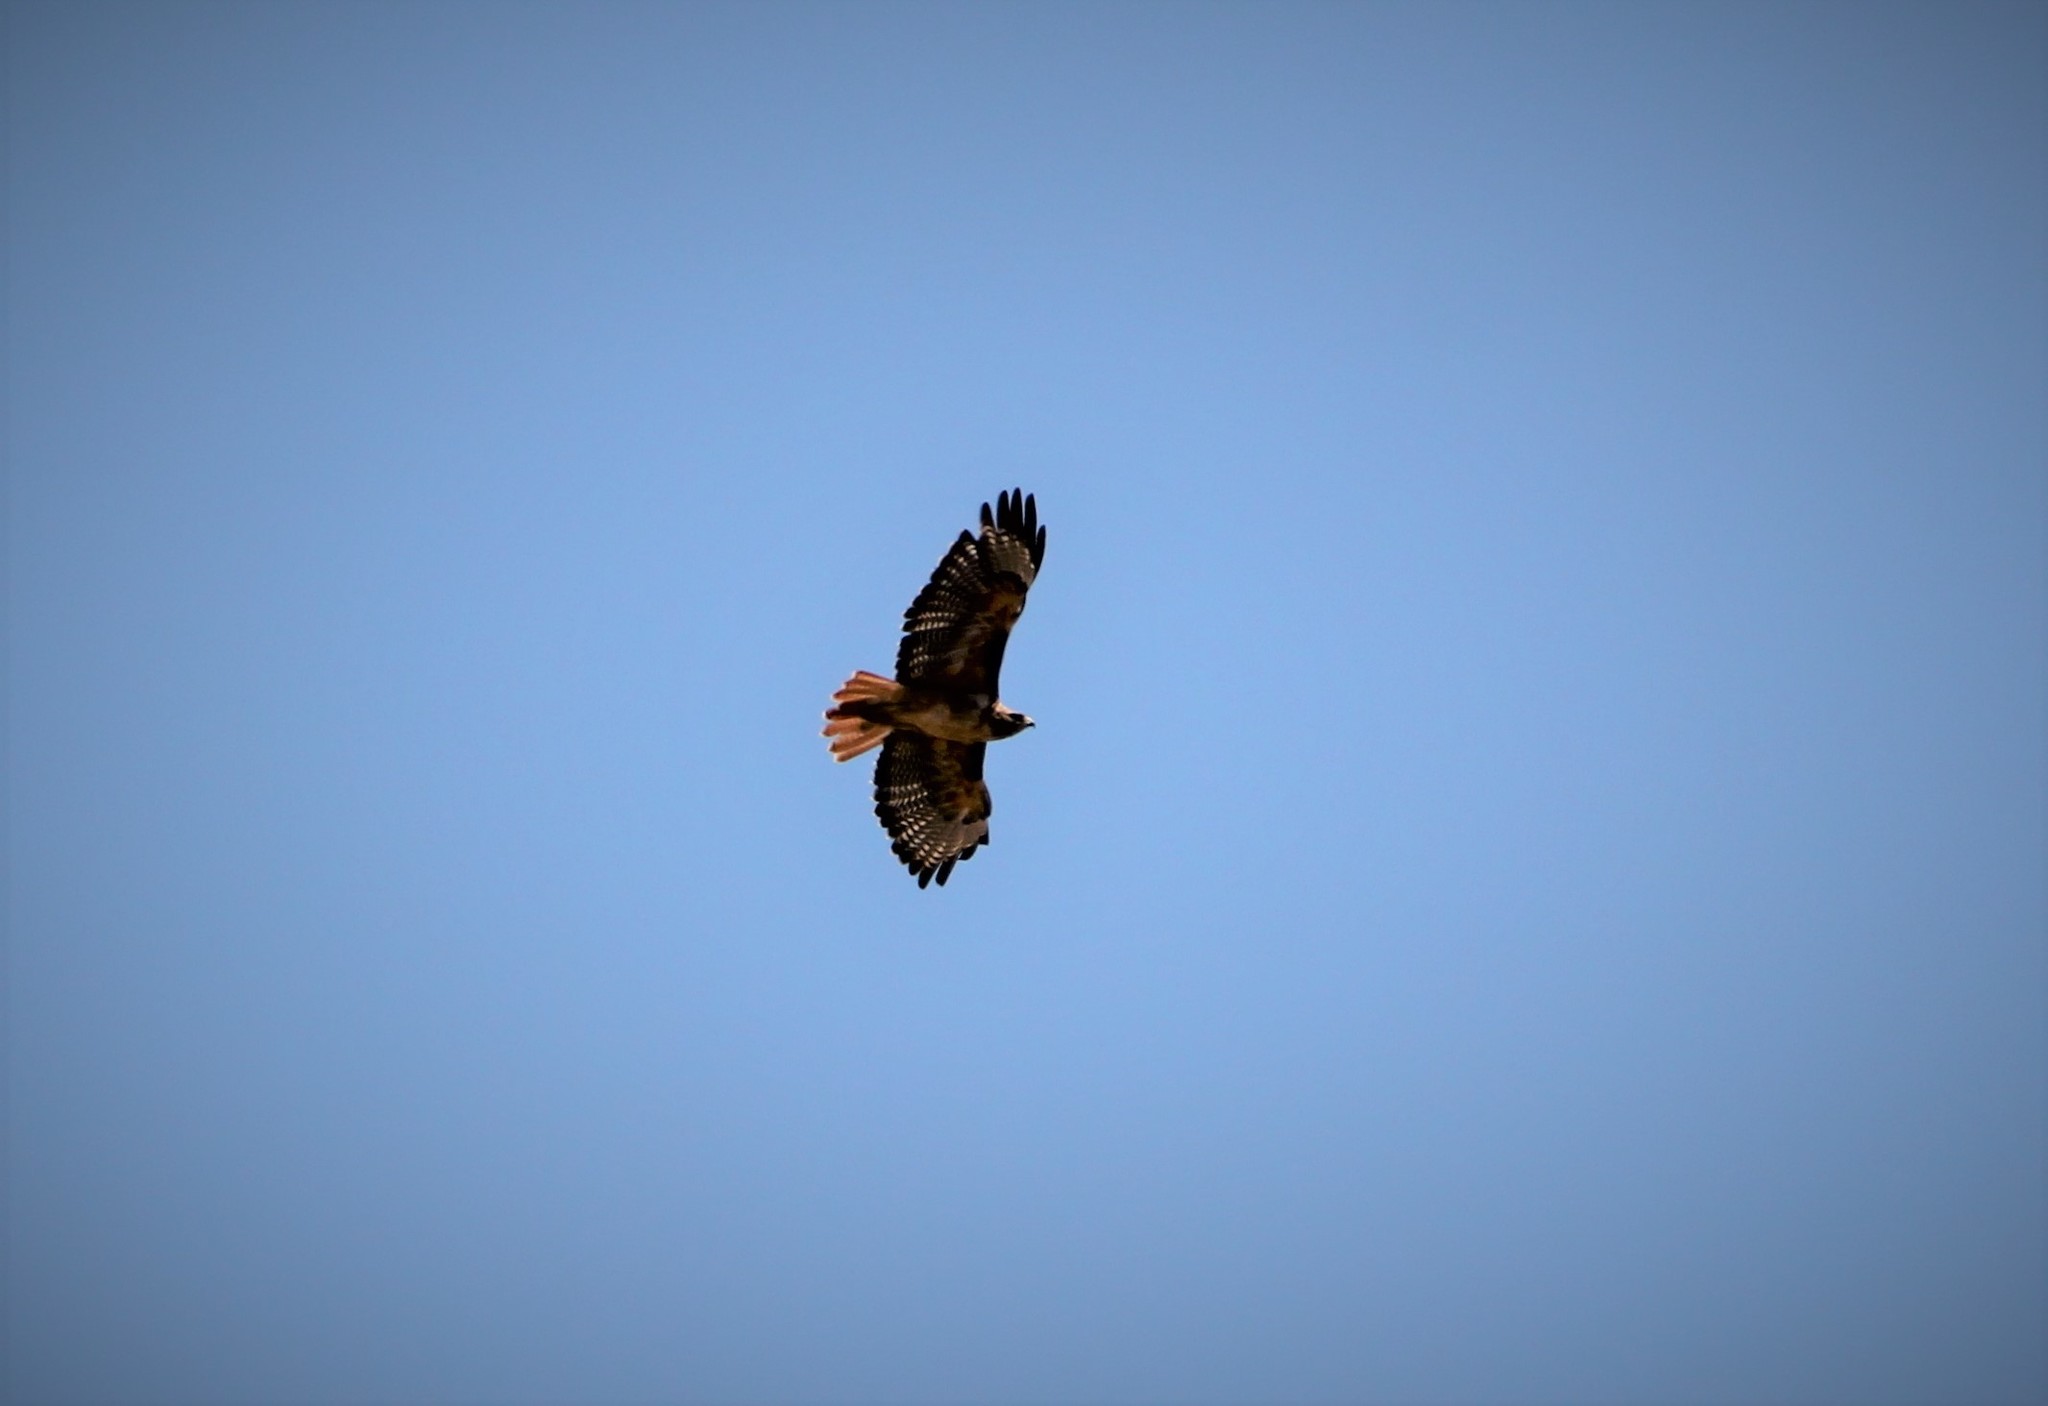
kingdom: Animalia
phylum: Chordata
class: Aves
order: Accipitriformes
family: Accipitridae
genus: Buteo
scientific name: Buteo jamaicensis
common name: Red-tailed hawk
